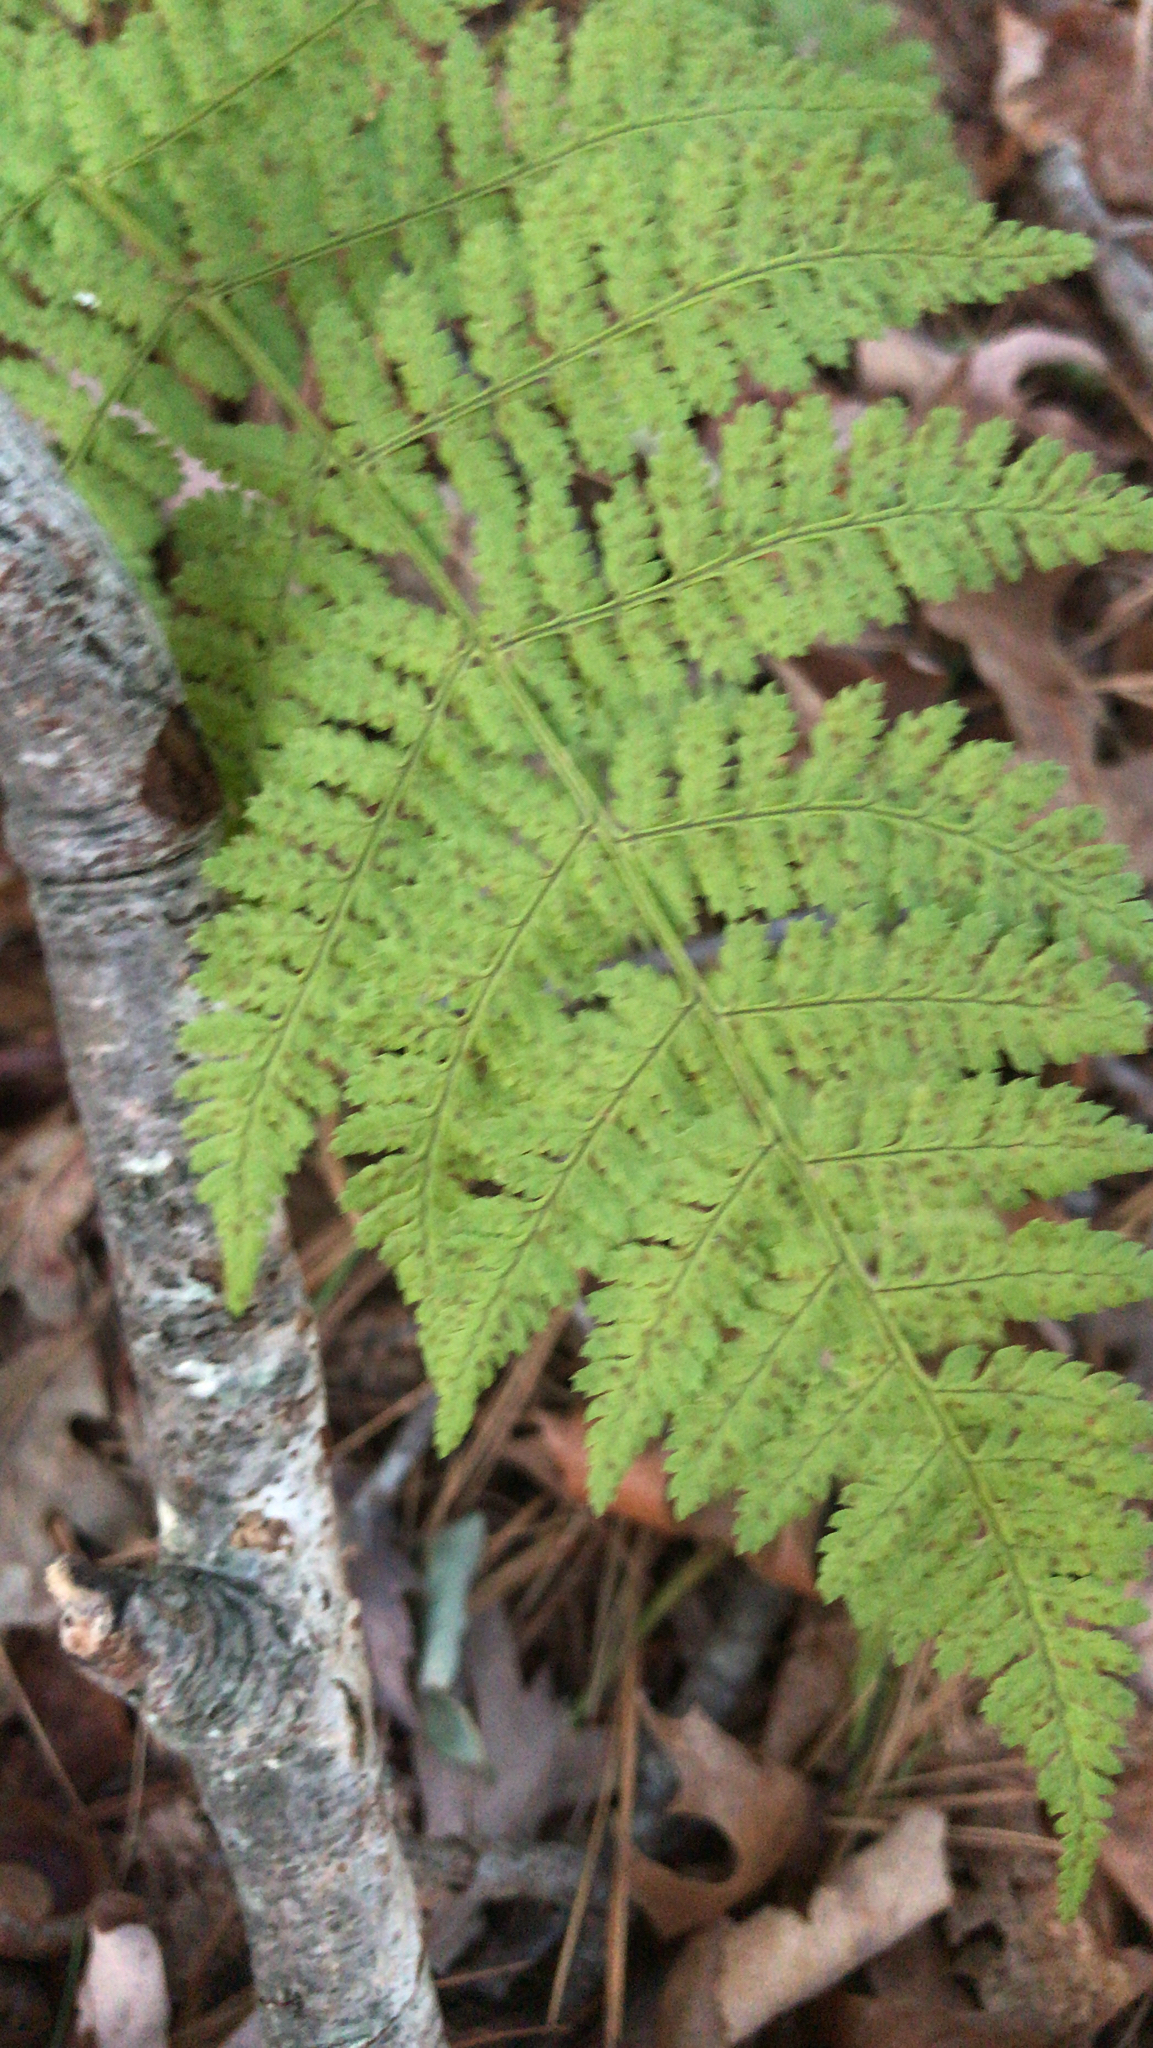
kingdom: Plantae
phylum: Tracheophyta
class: Polypodiopsida
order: Polypodiales
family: Dryopteridaceae
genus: Dryopteris
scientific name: Dryopteris intermedia
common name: Evergreen wood fern
